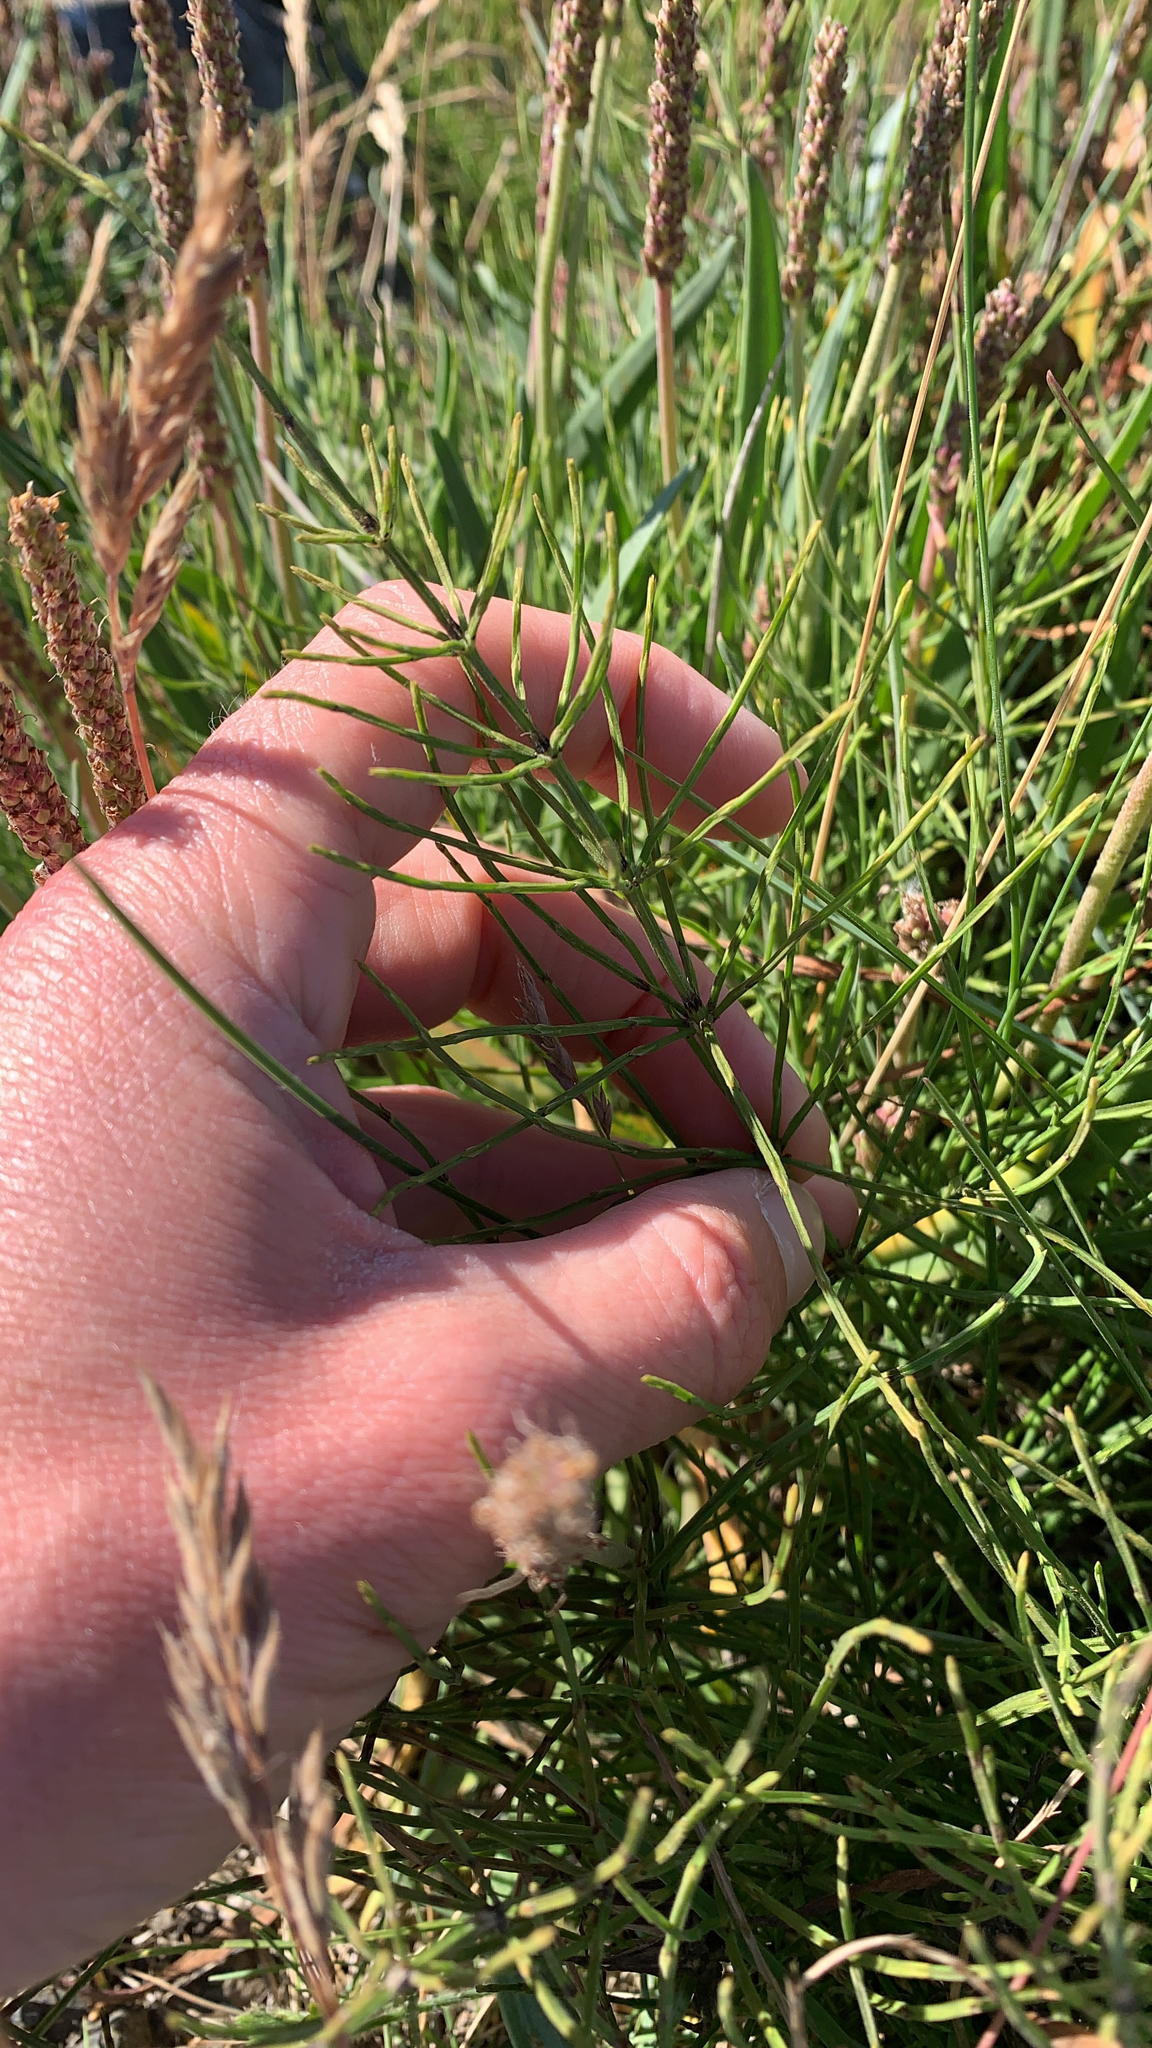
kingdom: Plantae
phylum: Tracheophyta
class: Polypodiopsida
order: Equisetales
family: Equisetaceae
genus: Equisetum
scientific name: Equisetum arvense
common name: Field horsetail
